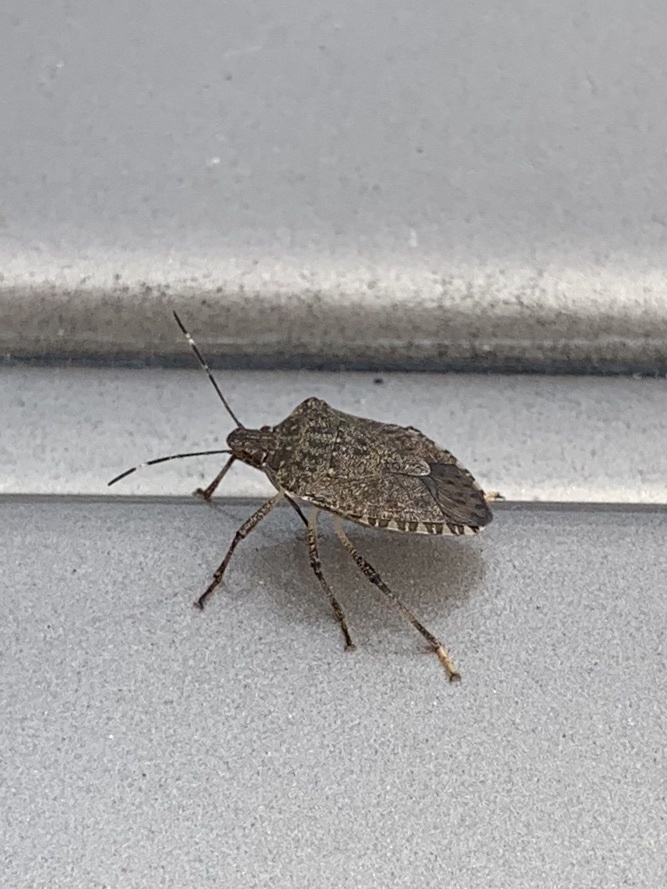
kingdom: Animalia
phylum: Arthropoda
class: Insecta
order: Hemiptera
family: Pentatomidae
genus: Halyomorpha
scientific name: Halyomorpha halys
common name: Brown marmorated stink bug
